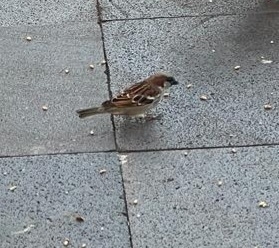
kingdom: Animalia
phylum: Chordata
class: Aves
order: Passeriformes
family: Passeridae
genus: Passer
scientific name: Passer domesticus
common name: House sparrow
